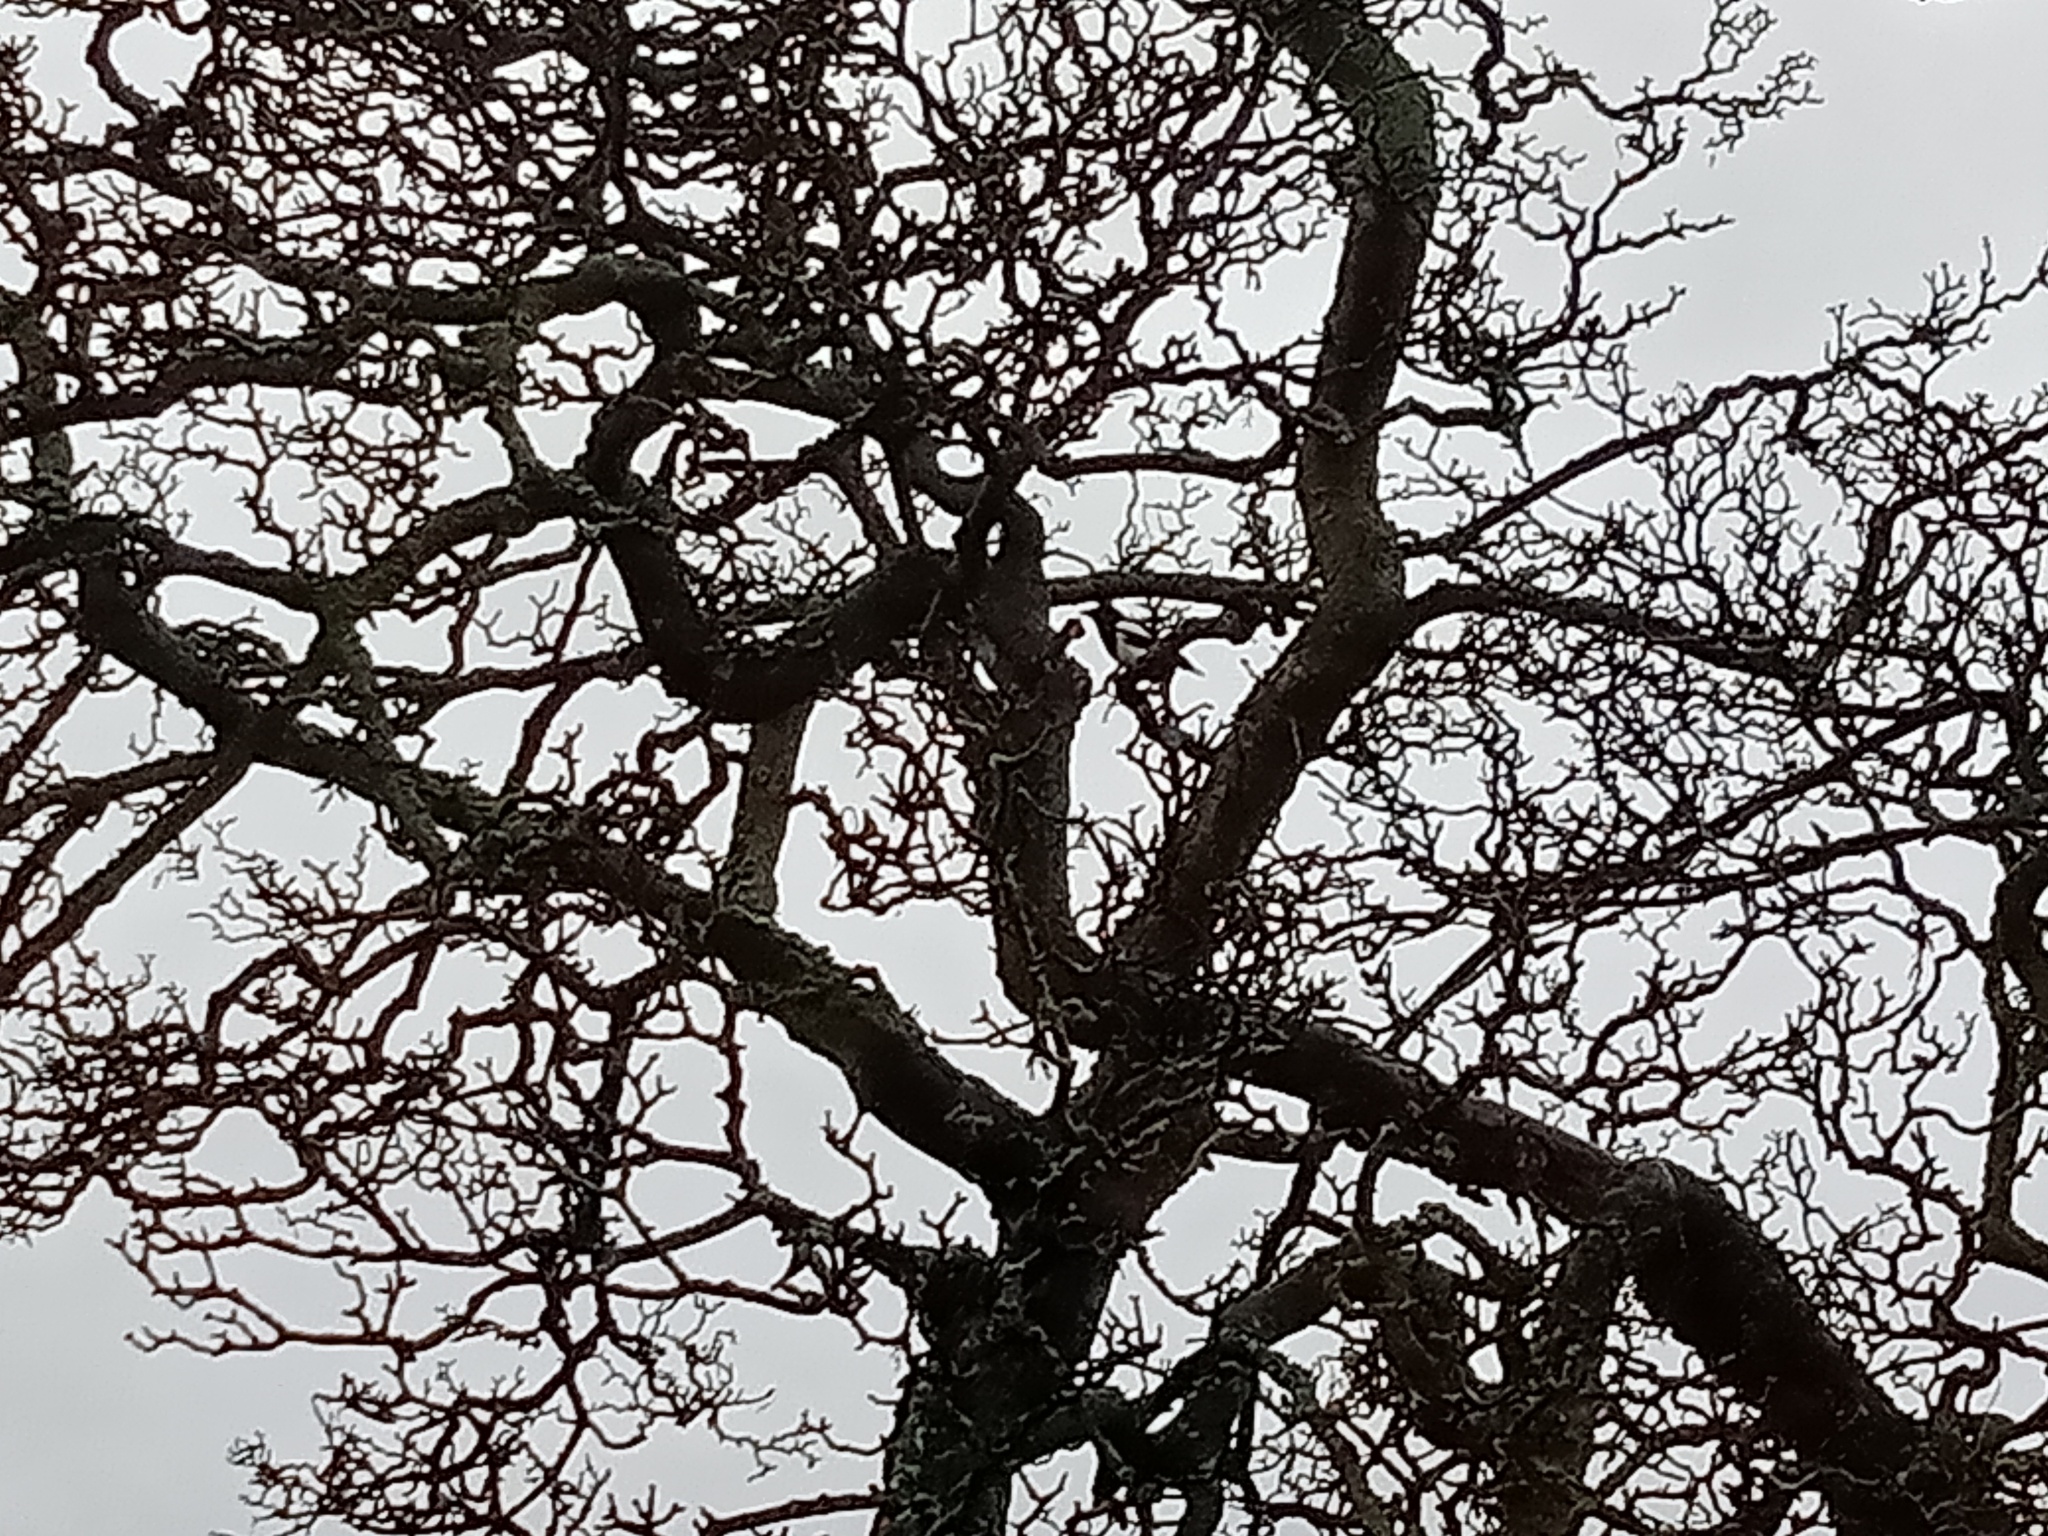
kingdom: Animalia
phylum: Chordata
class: Aves
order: Passeriformes
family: Corvidae
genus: Pica
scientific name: Pica pica
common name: Eurasian magpie
